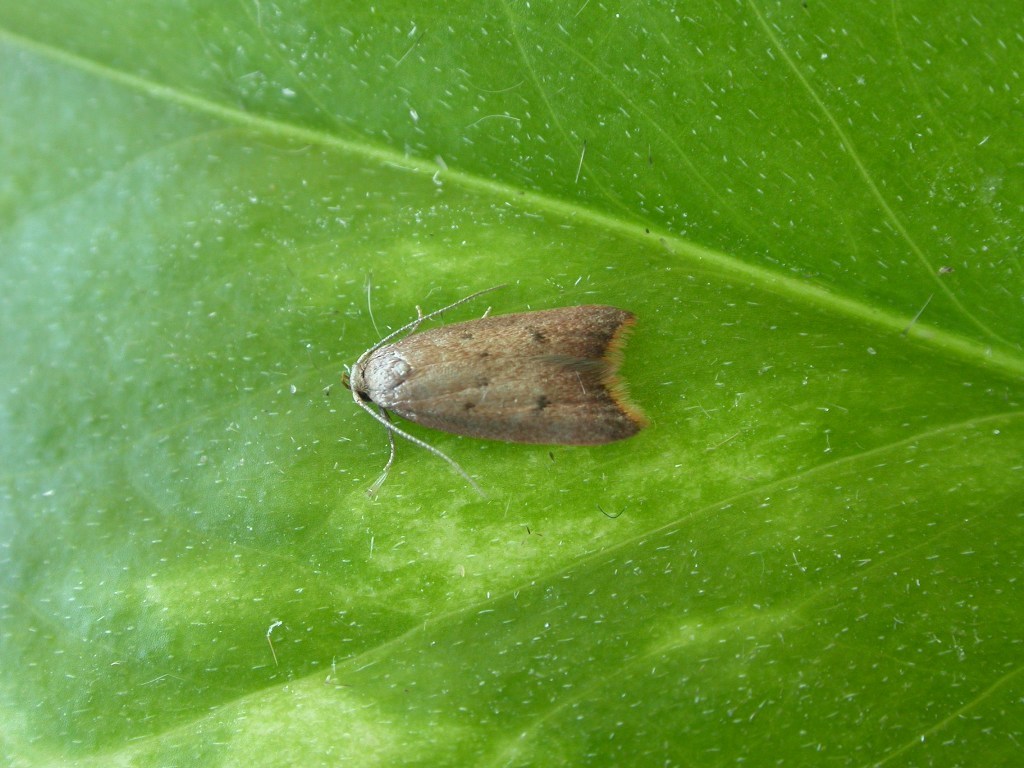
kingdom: Animalia
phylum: Arthropoda
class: Insecta
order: Lepidoptera
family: Oecophoridae
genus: Tachystola
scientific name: Tachystola acroxantha
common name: Ruddy streak
